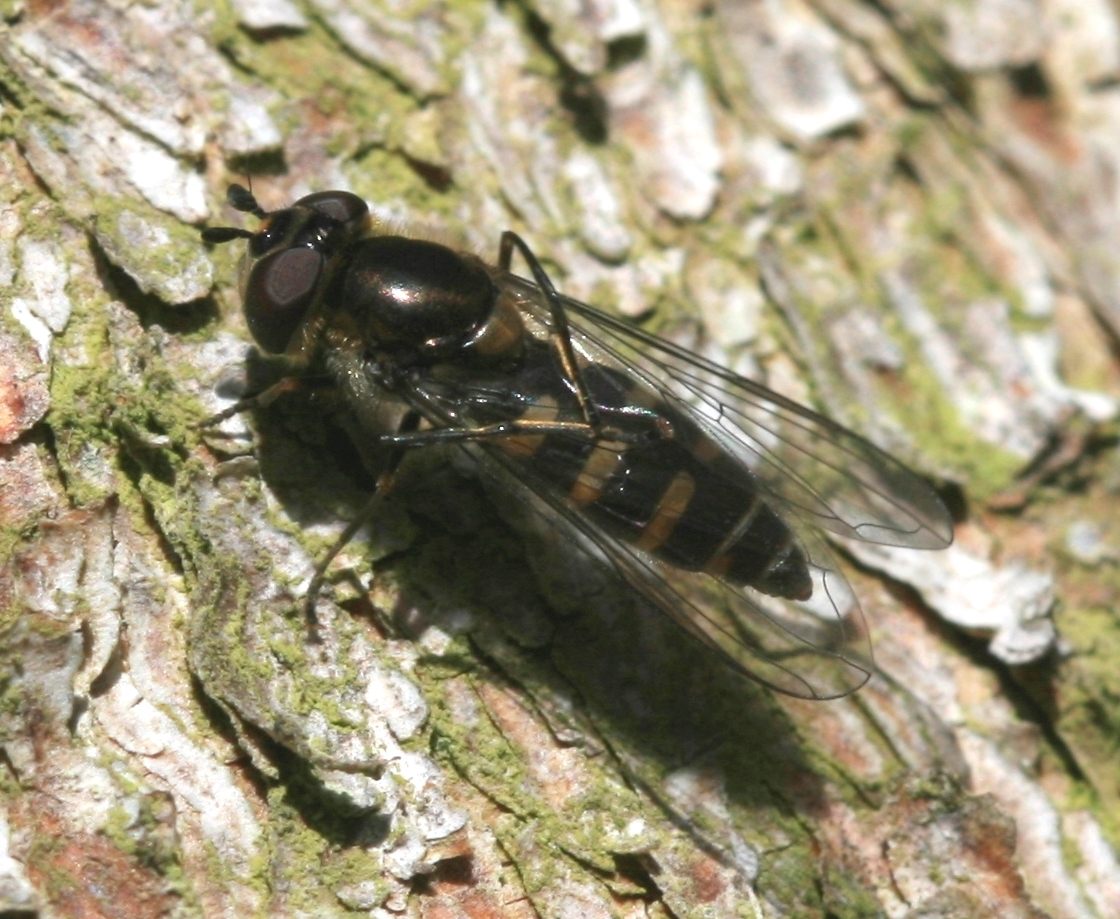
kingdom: Animalia
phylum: Arthropoda
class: Insecta
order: Diptera
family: Syrphidae
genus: Melangyna
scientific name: Melangyna lasiophthalma
